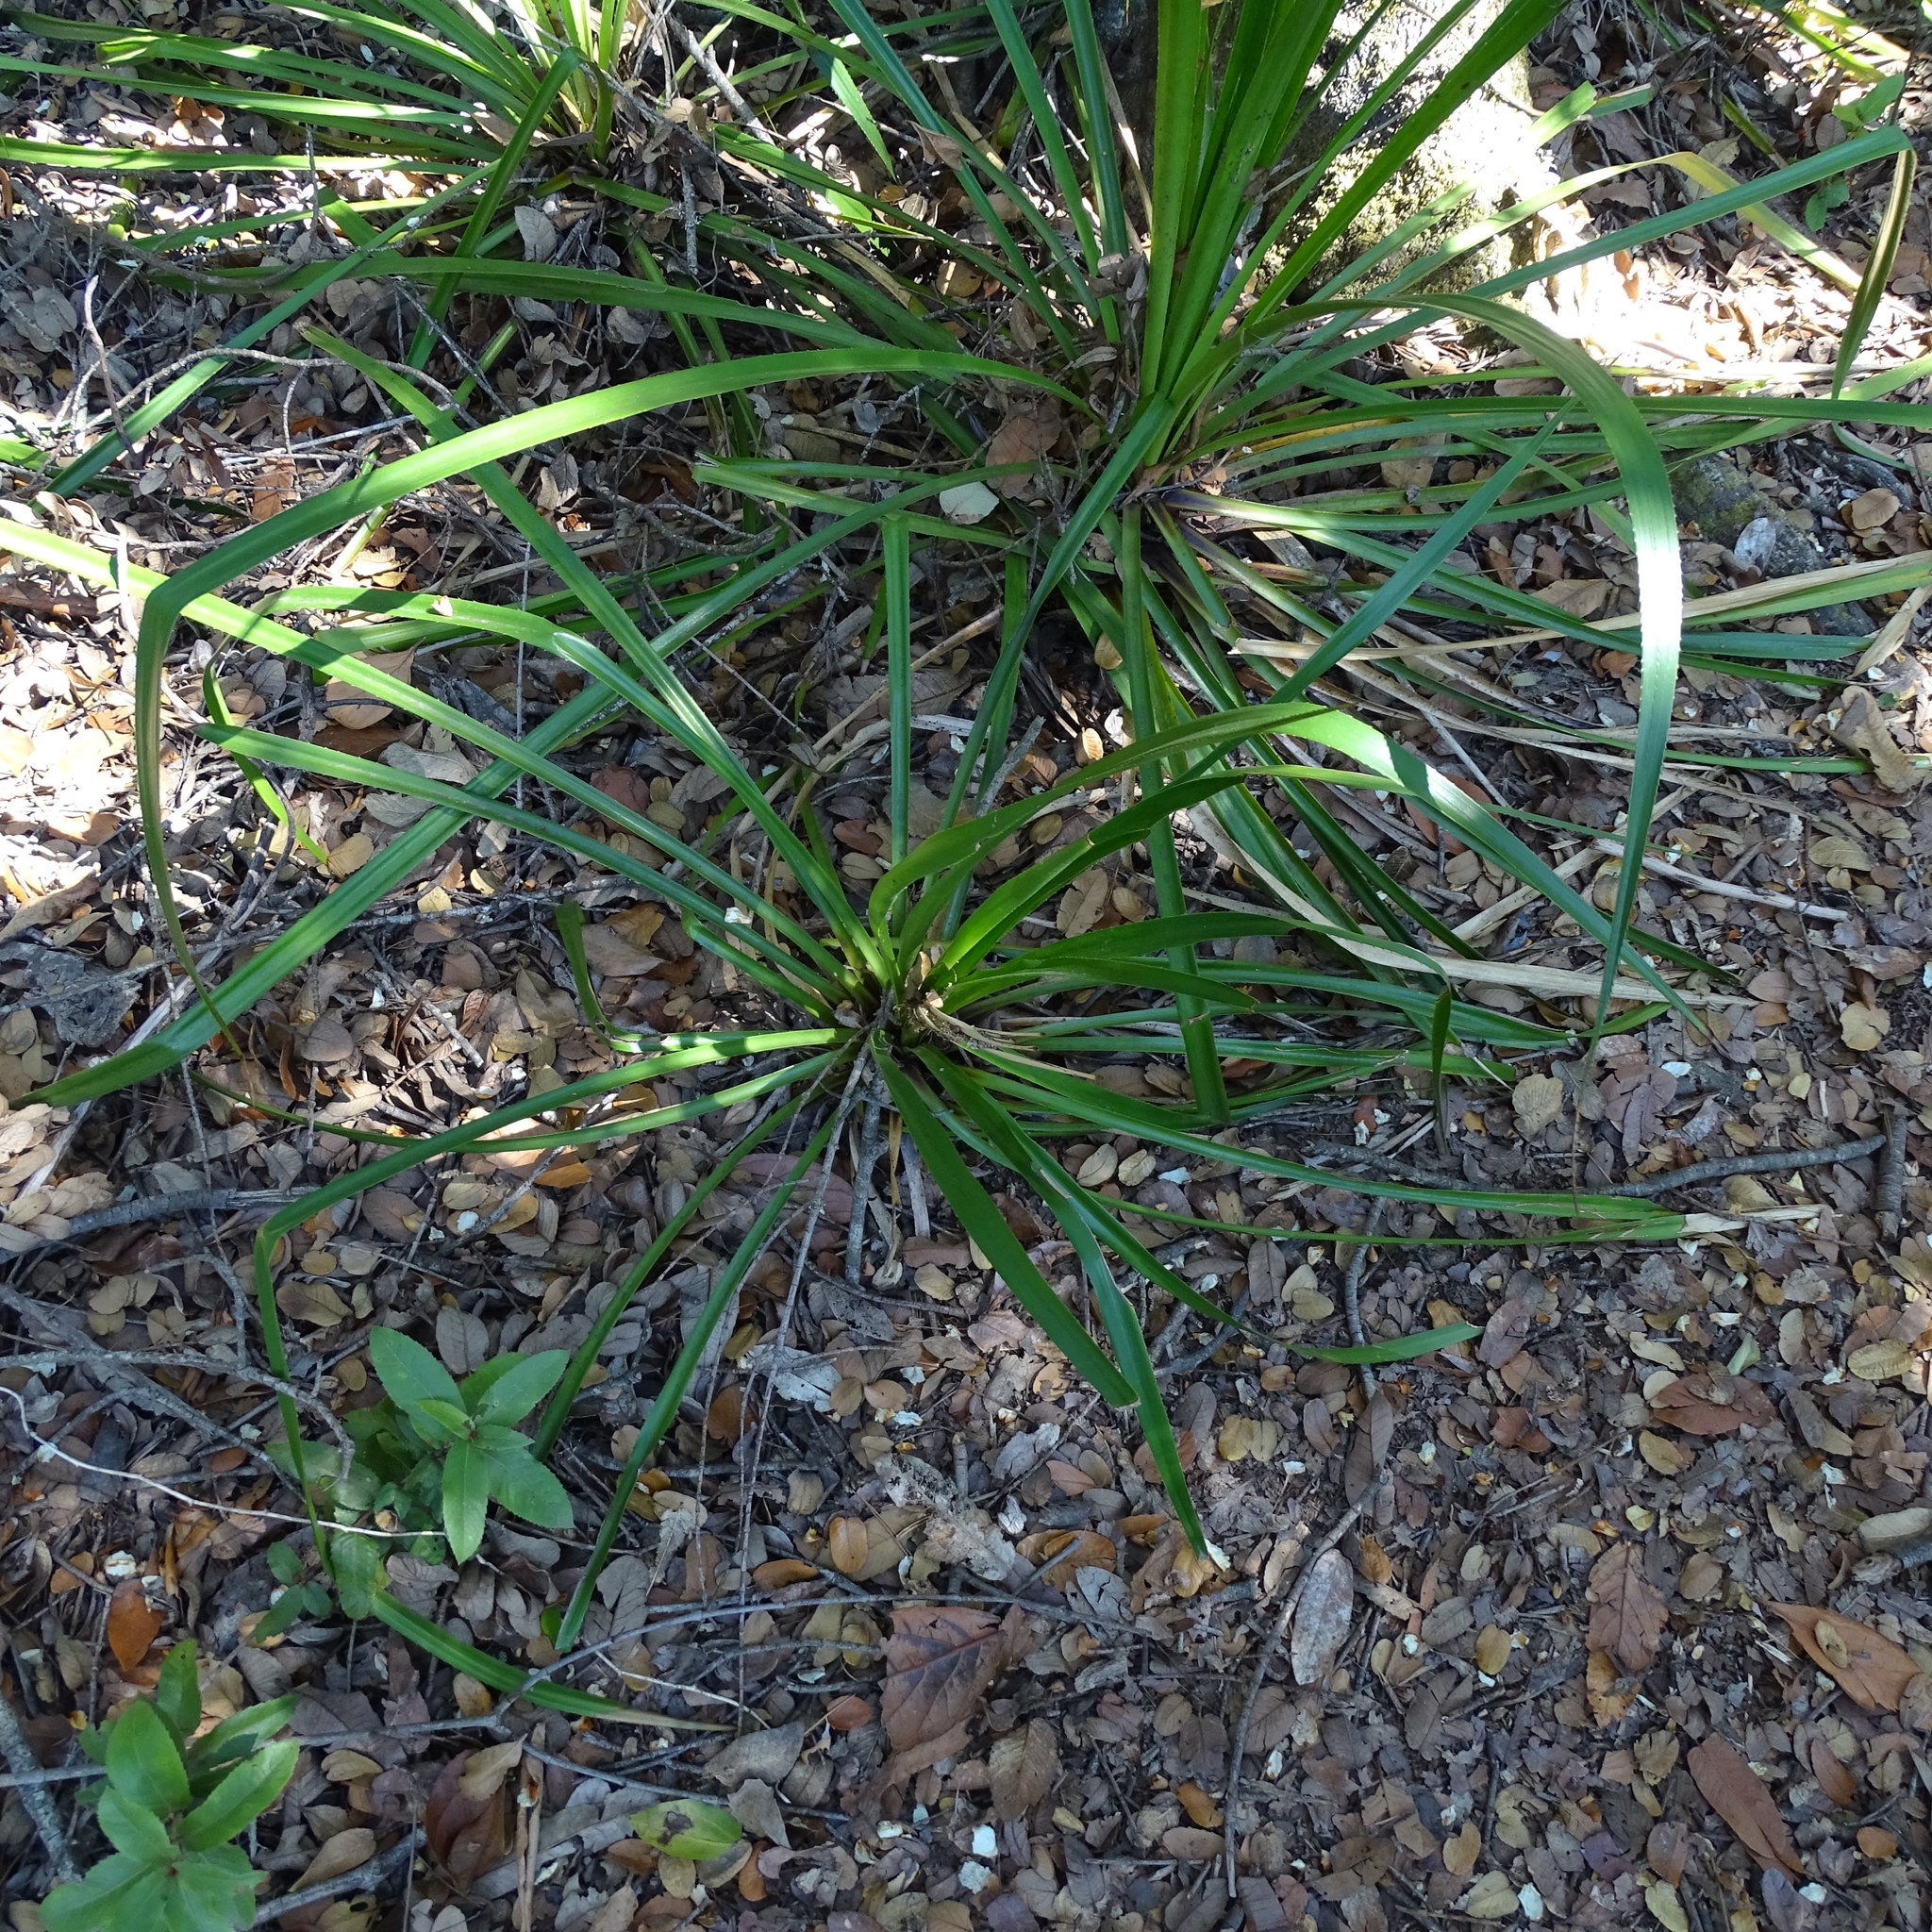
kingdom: Plantae
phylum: Tracheophyta
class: Liliopsida
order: Poales
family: Bromeliaceae
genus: Greigia
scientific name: Greigia sphacelata
